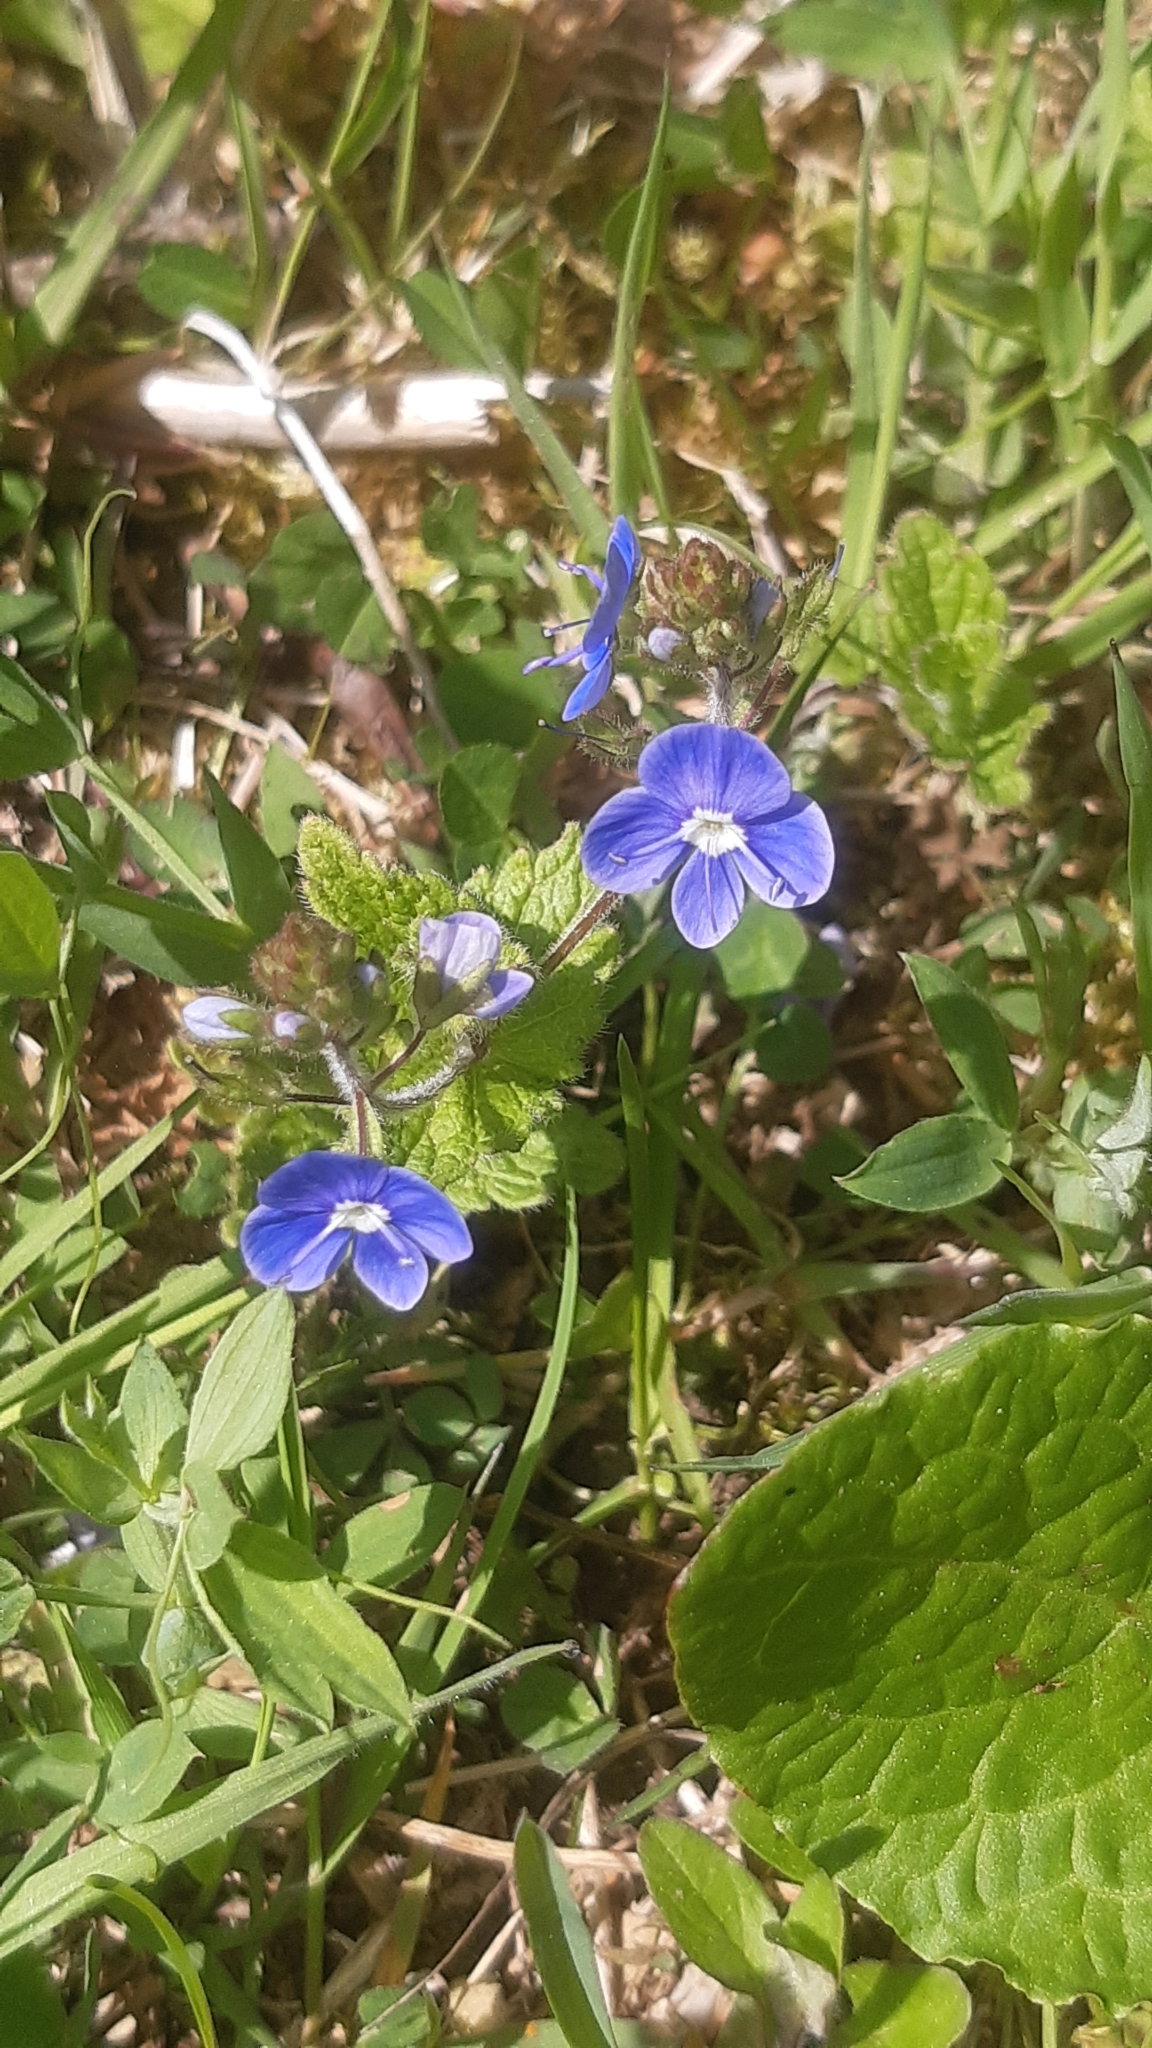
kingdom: Plantae
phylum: Tracheophyta
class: Magnoliopsida
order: Lamiales
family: Plantaginaceae
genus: Veronica
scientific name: Veronica chamaedrys
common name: Germander speedwell
